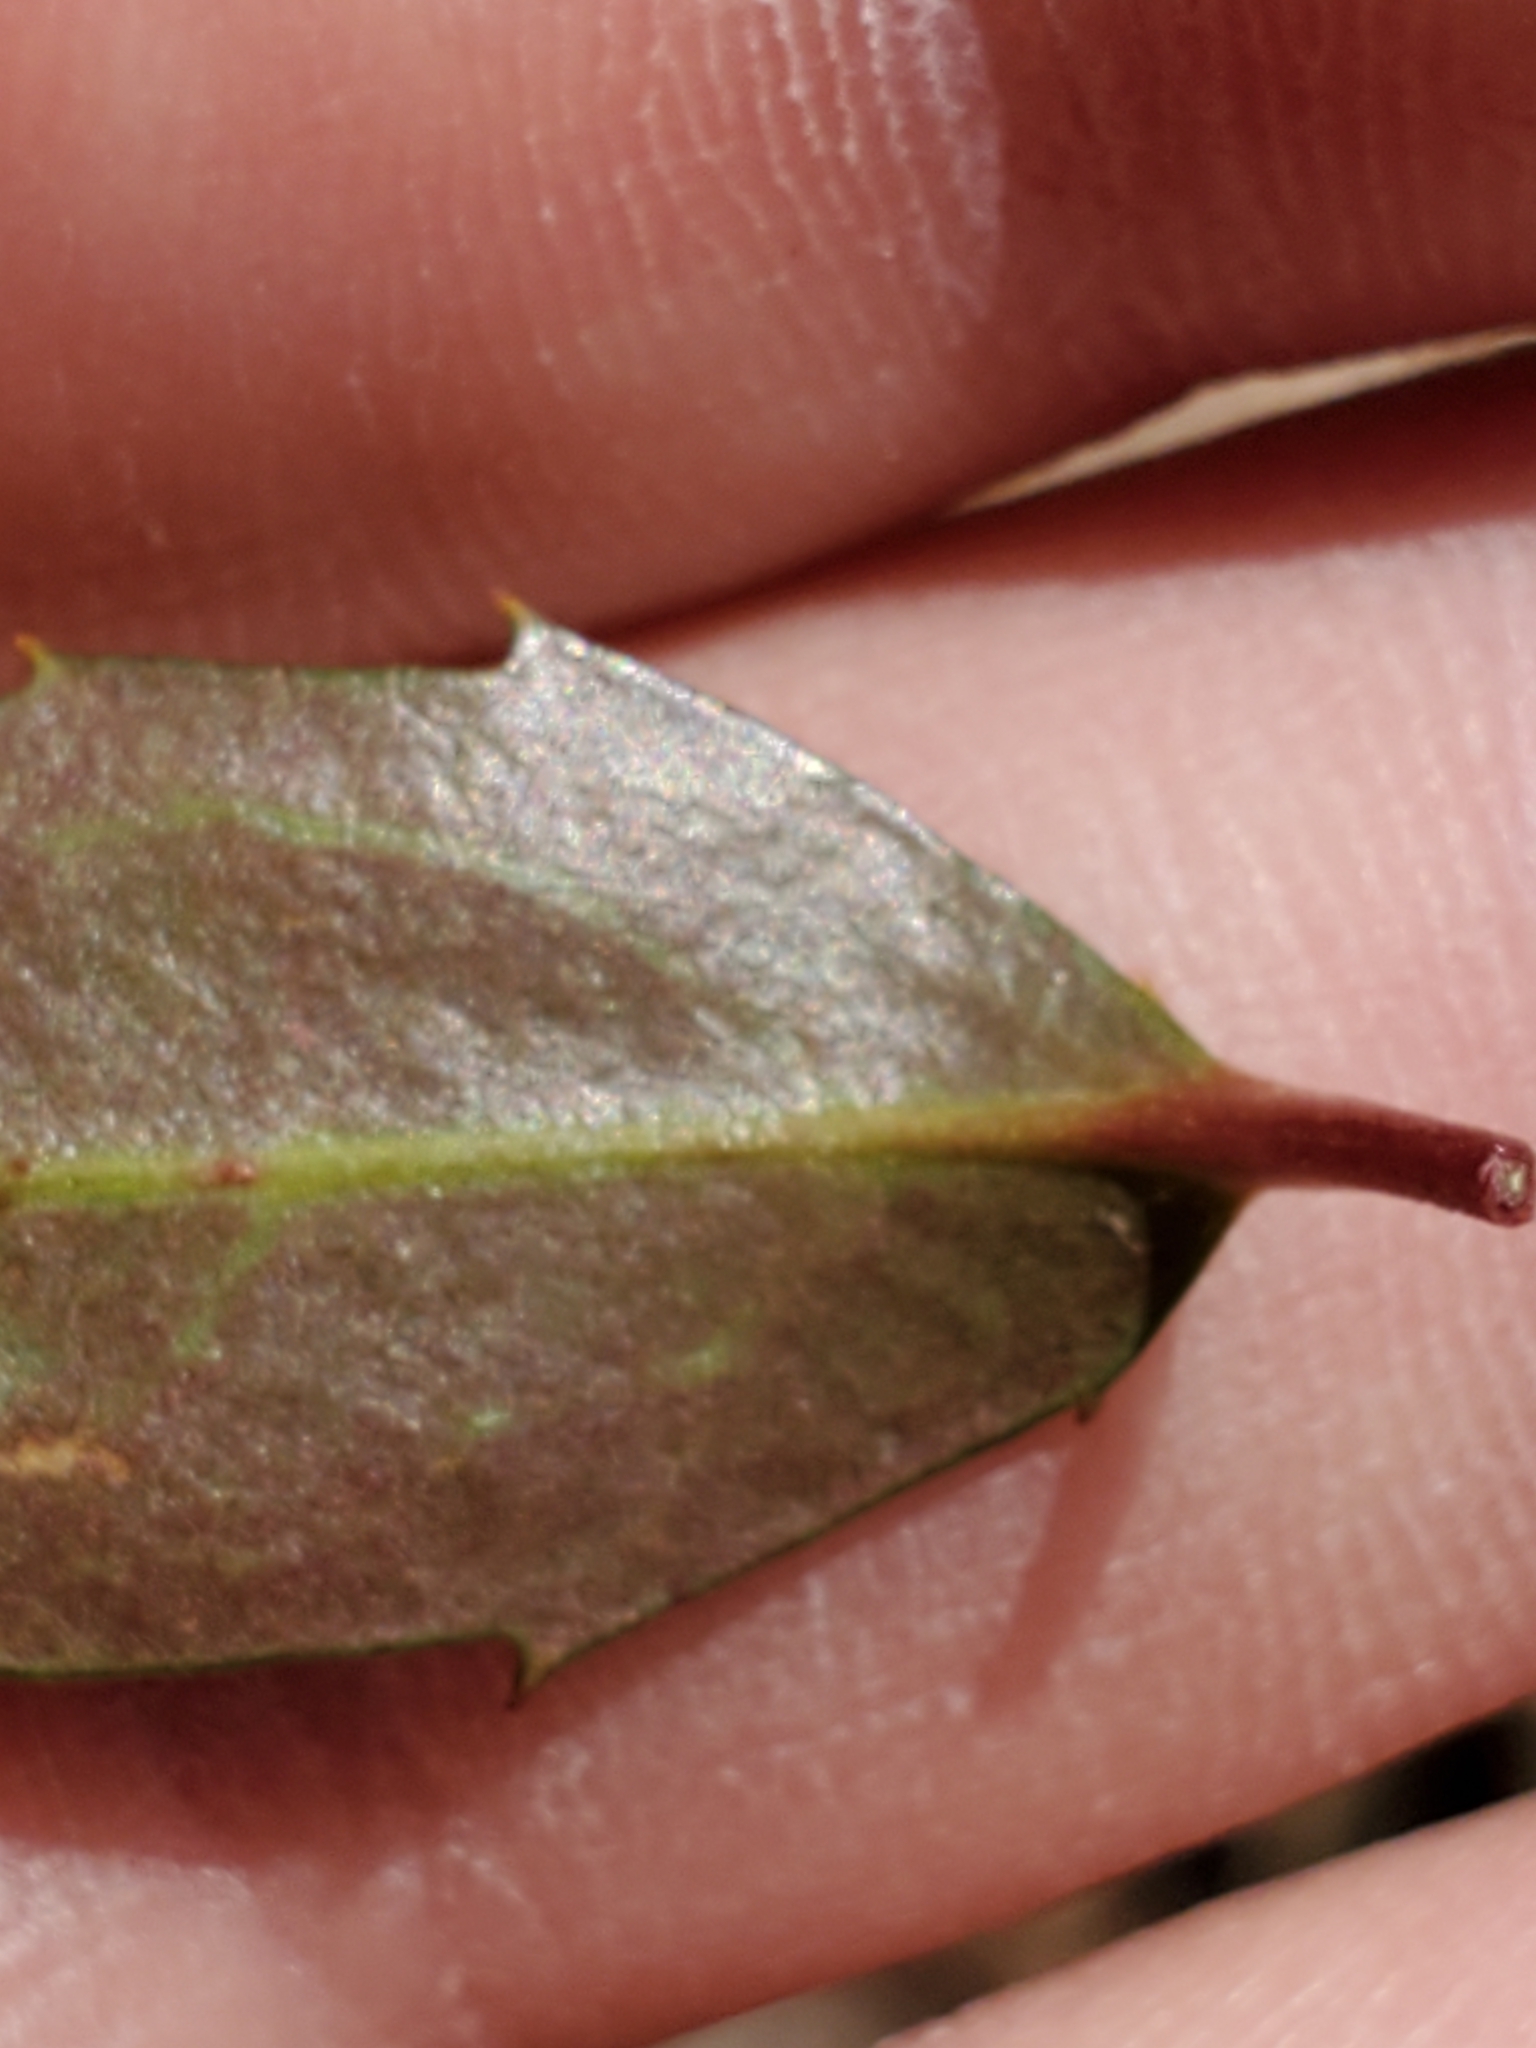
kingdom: Plantae
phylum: Tracheophyta
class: Magnoliopsida
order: Ericales
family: Ericaceae
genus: Chimaphila
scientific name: Chimaphila maculata
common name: Spotted pipsissewa
